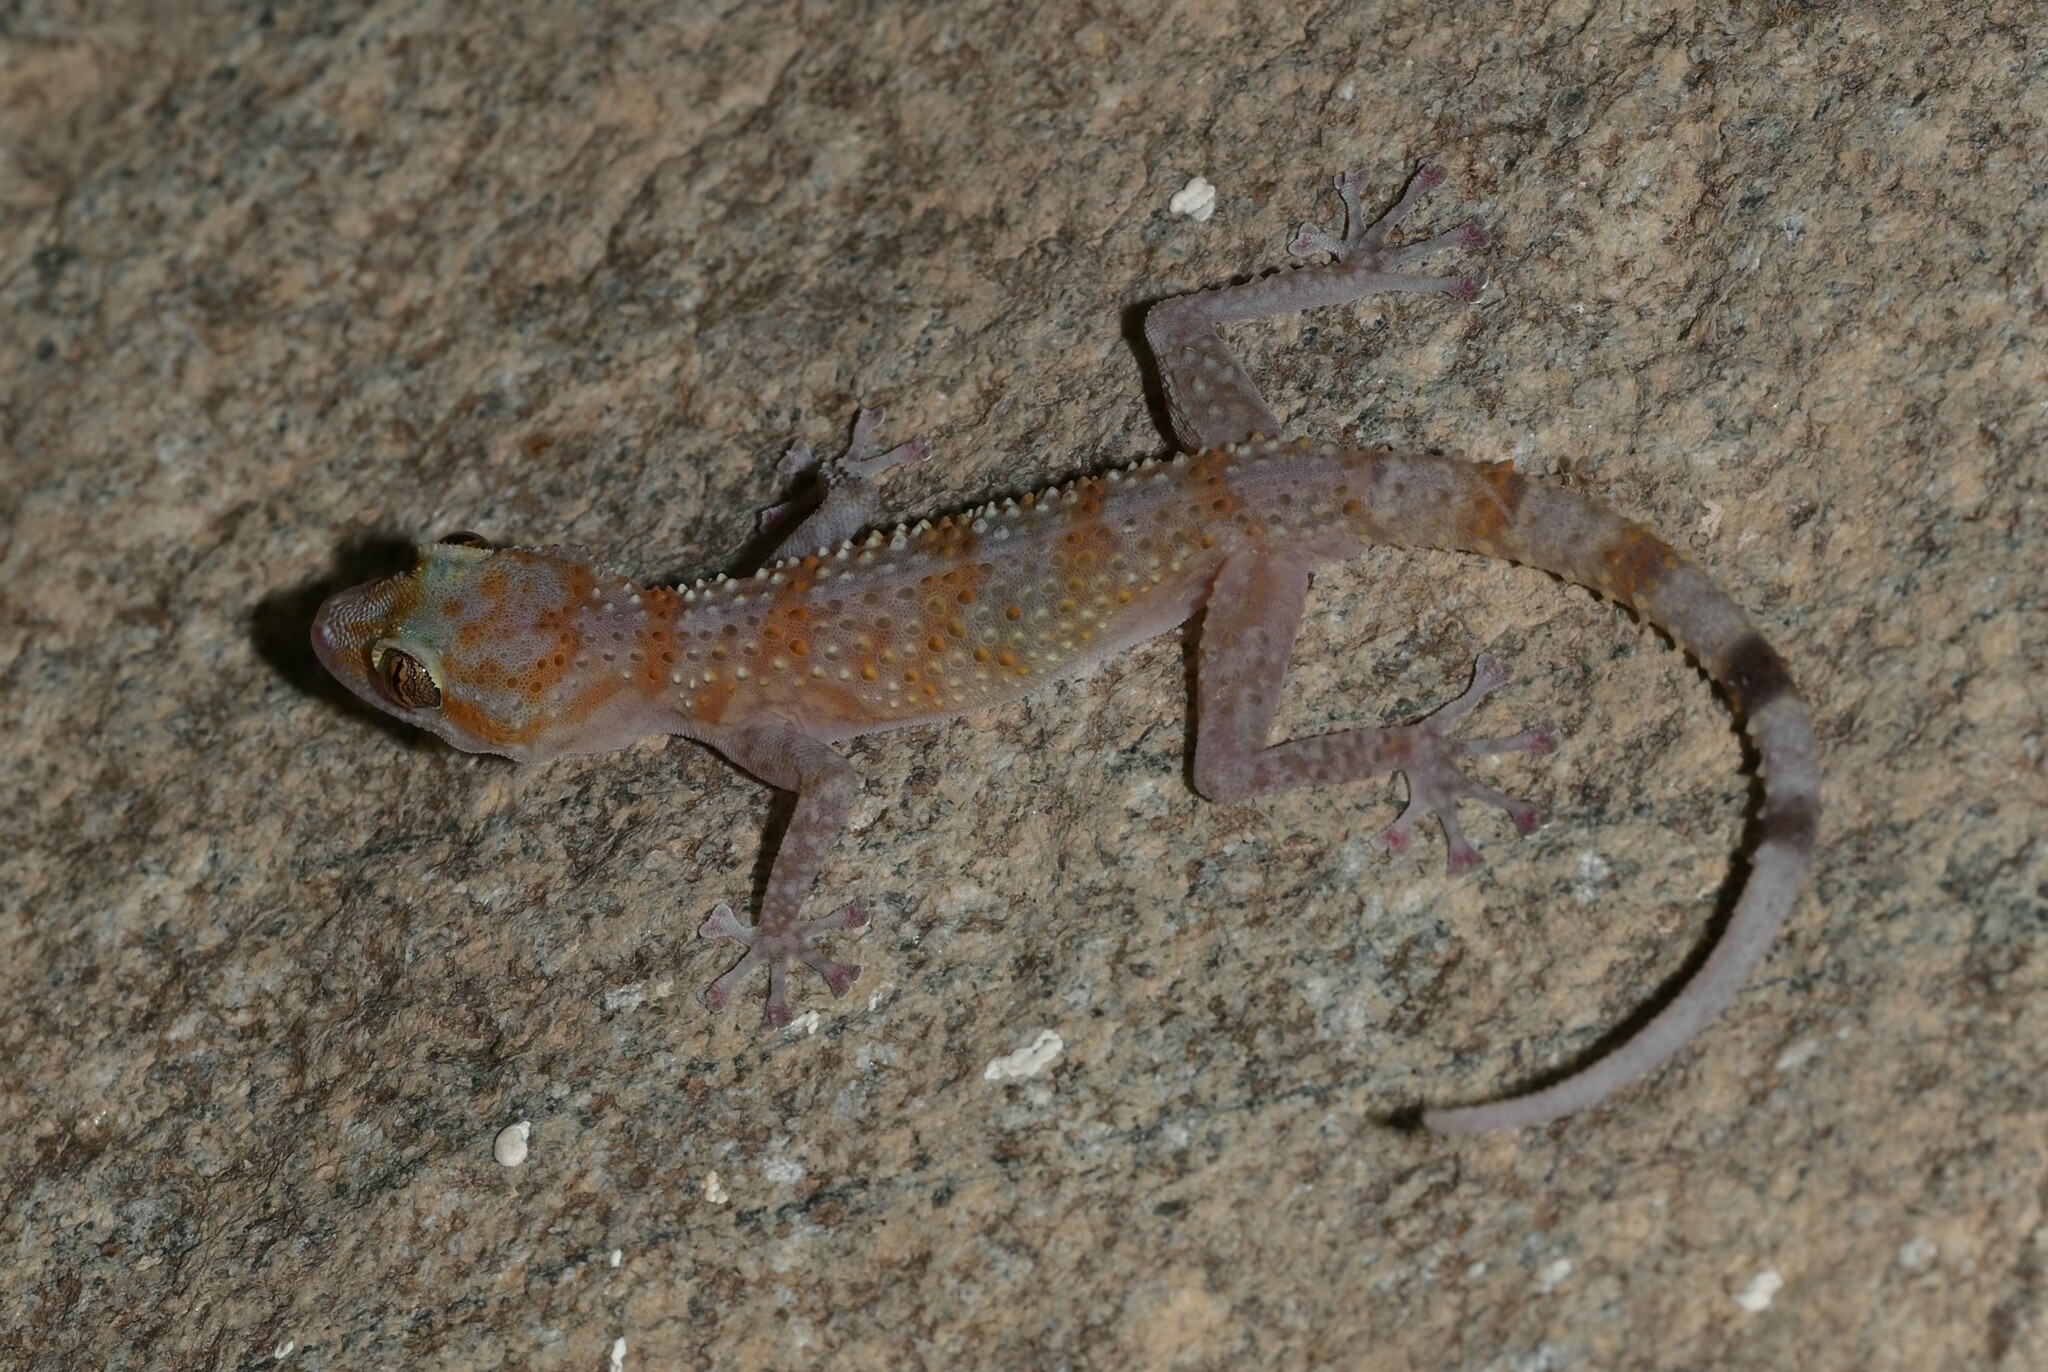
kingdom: Animalia
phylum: Chordata
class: Squamata
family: Phyllodactylidae
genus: Asaccus
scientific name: Asaccus margaritae
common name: Margarita’s leaf-toed gecko
